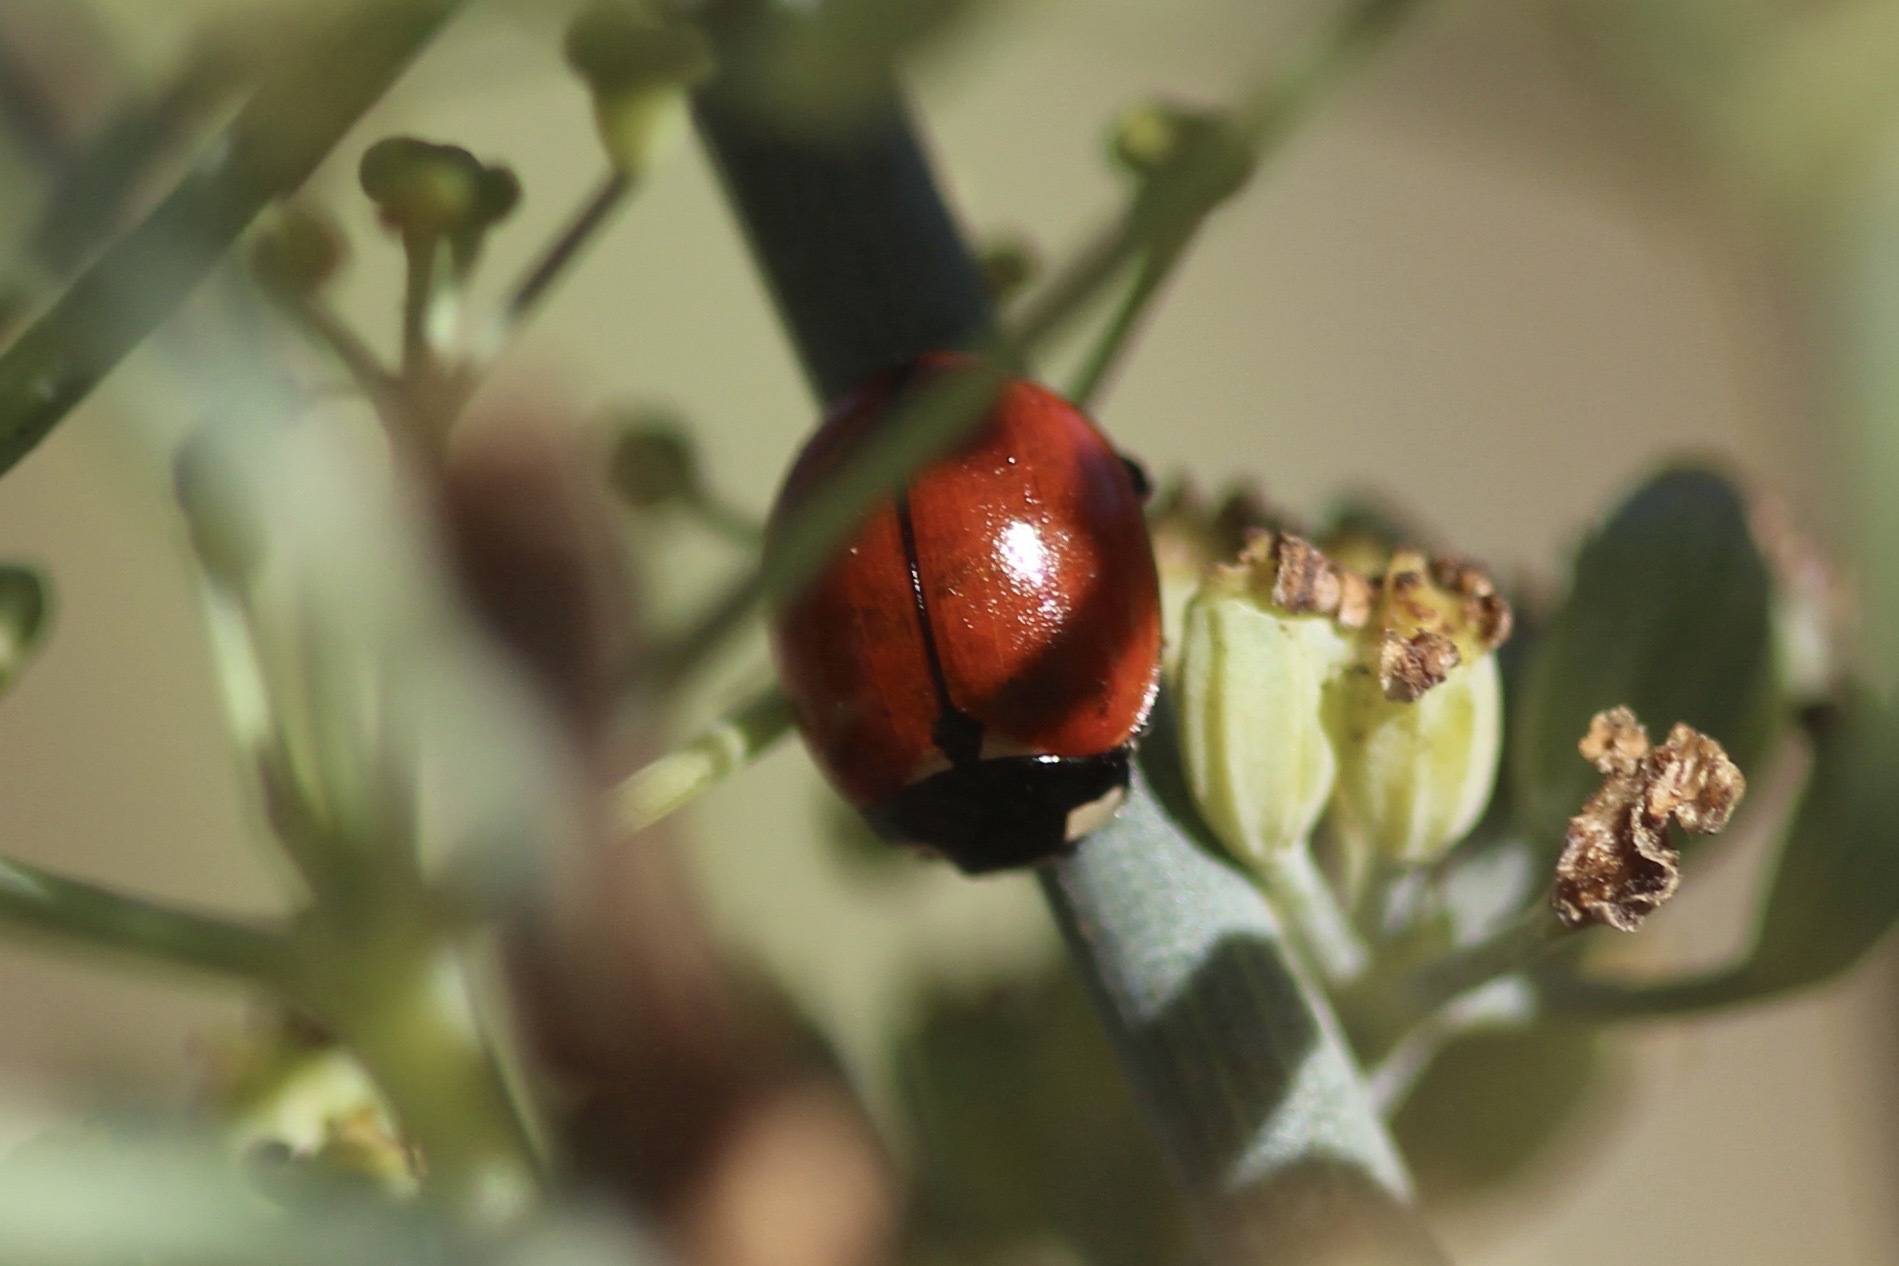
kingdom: Animalia
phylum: Arthropoda
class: Insecta
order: Coleoptera
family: Coccinellidae
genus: Coccinella
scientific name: Coccinella californica
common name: Lady beetle
